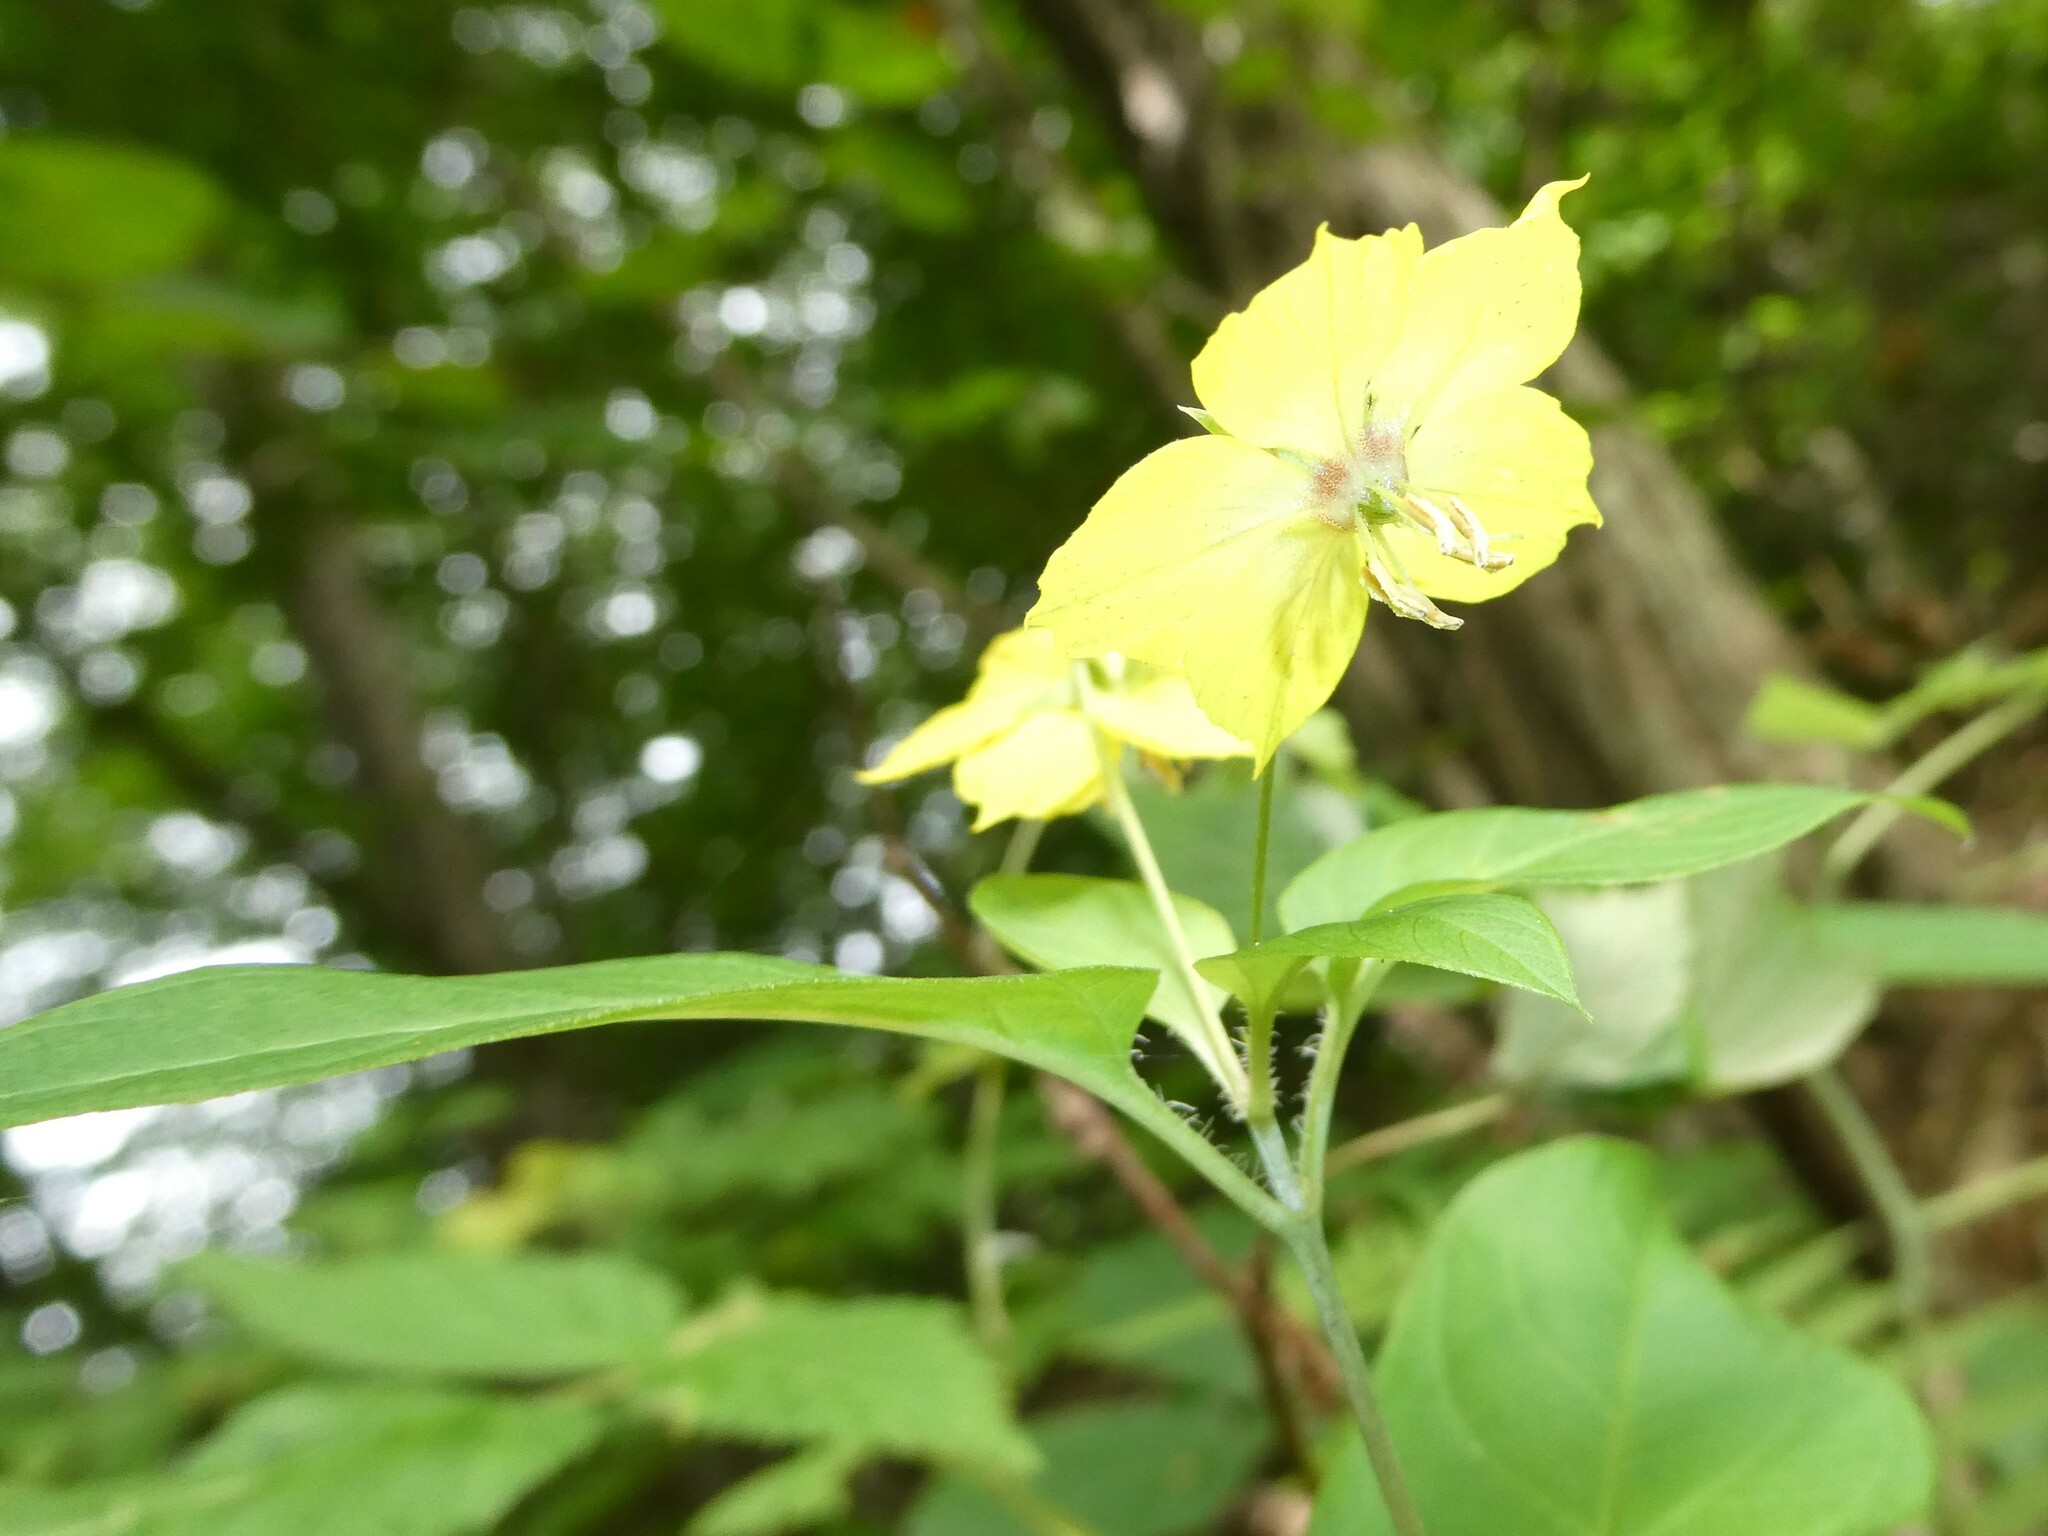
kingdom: Plantae
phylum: Tracheophyta
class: Magnoliopsida
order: Ericales
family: Primulaceae
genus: Lysimachia
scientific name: Lysimachia ciliata
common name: Fringed loosestrife
